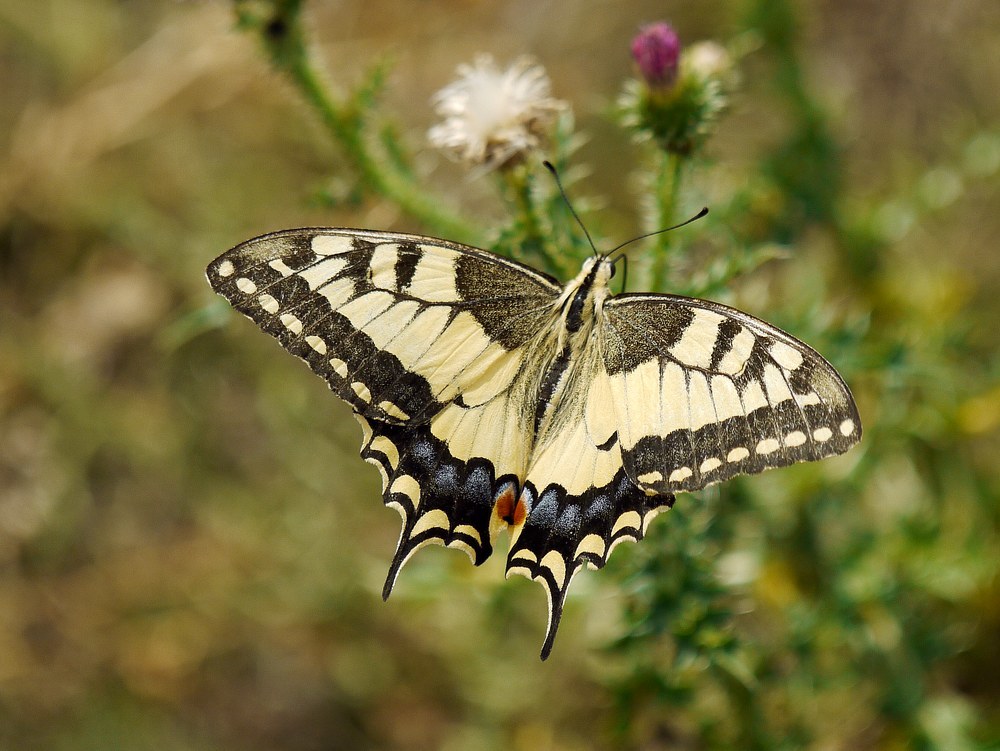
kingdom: Animalia
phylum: Arthropoda
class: Insecta
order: Lepidoptera
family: Papilionidae
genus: Papilio
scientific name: Papilio machaon
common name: Swallowtail
